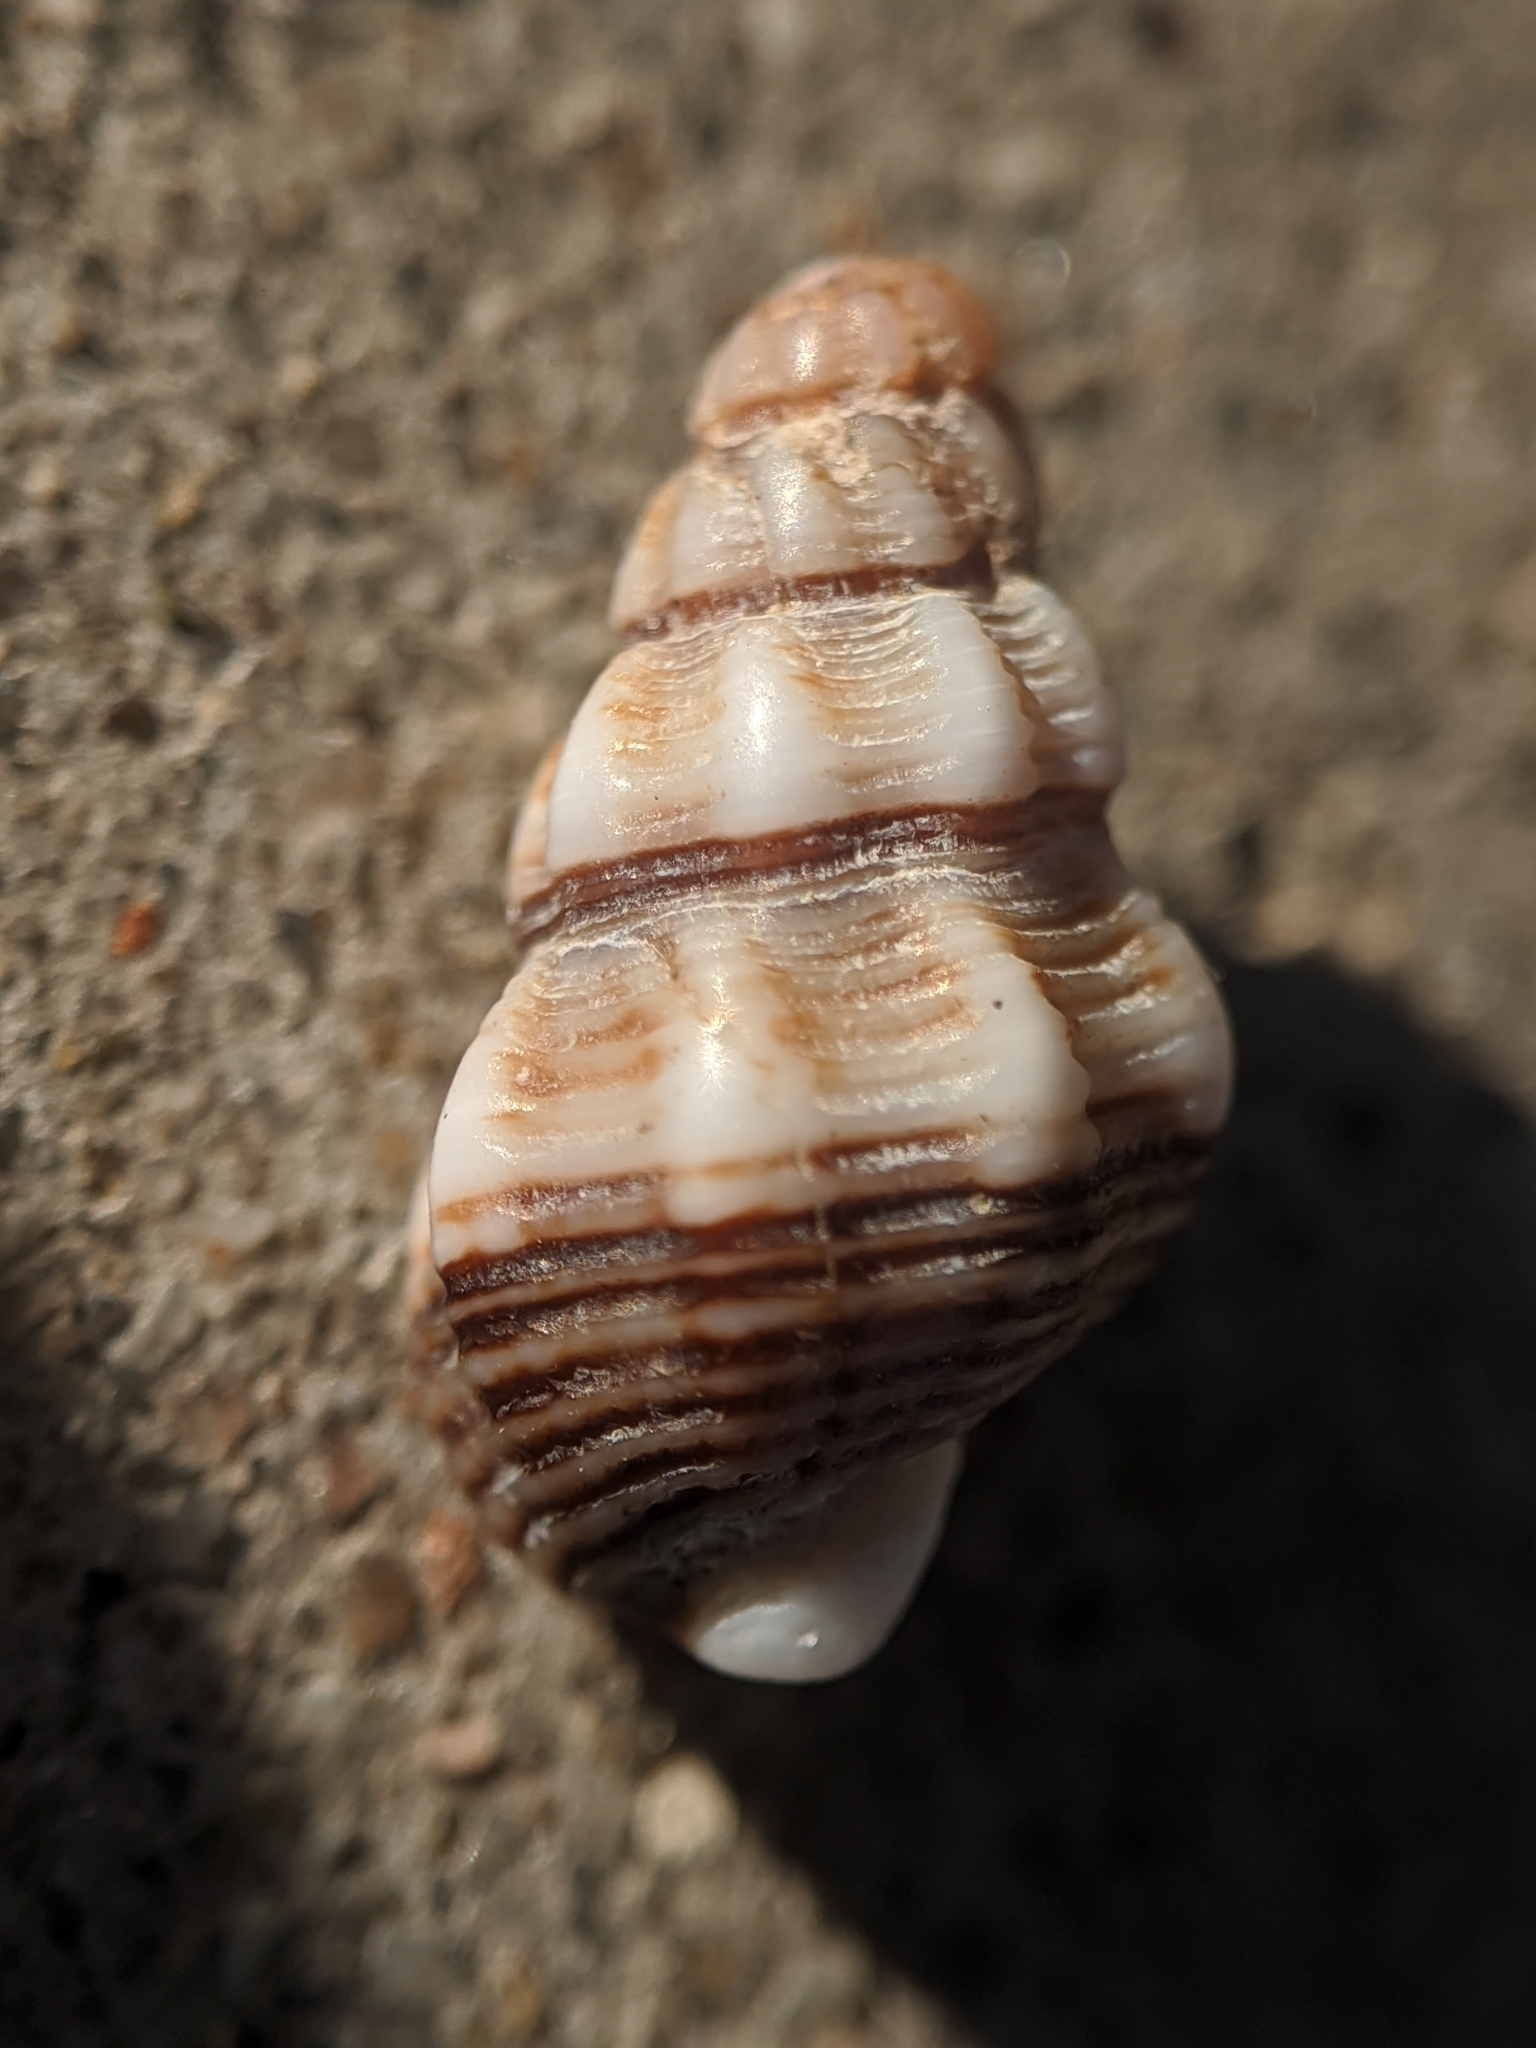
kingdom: Animalia
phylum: Mollusca
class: Gastropoda
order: Neogastropoda
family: Nassariidae
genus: Nassarius
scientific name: Nassarius mendicus
